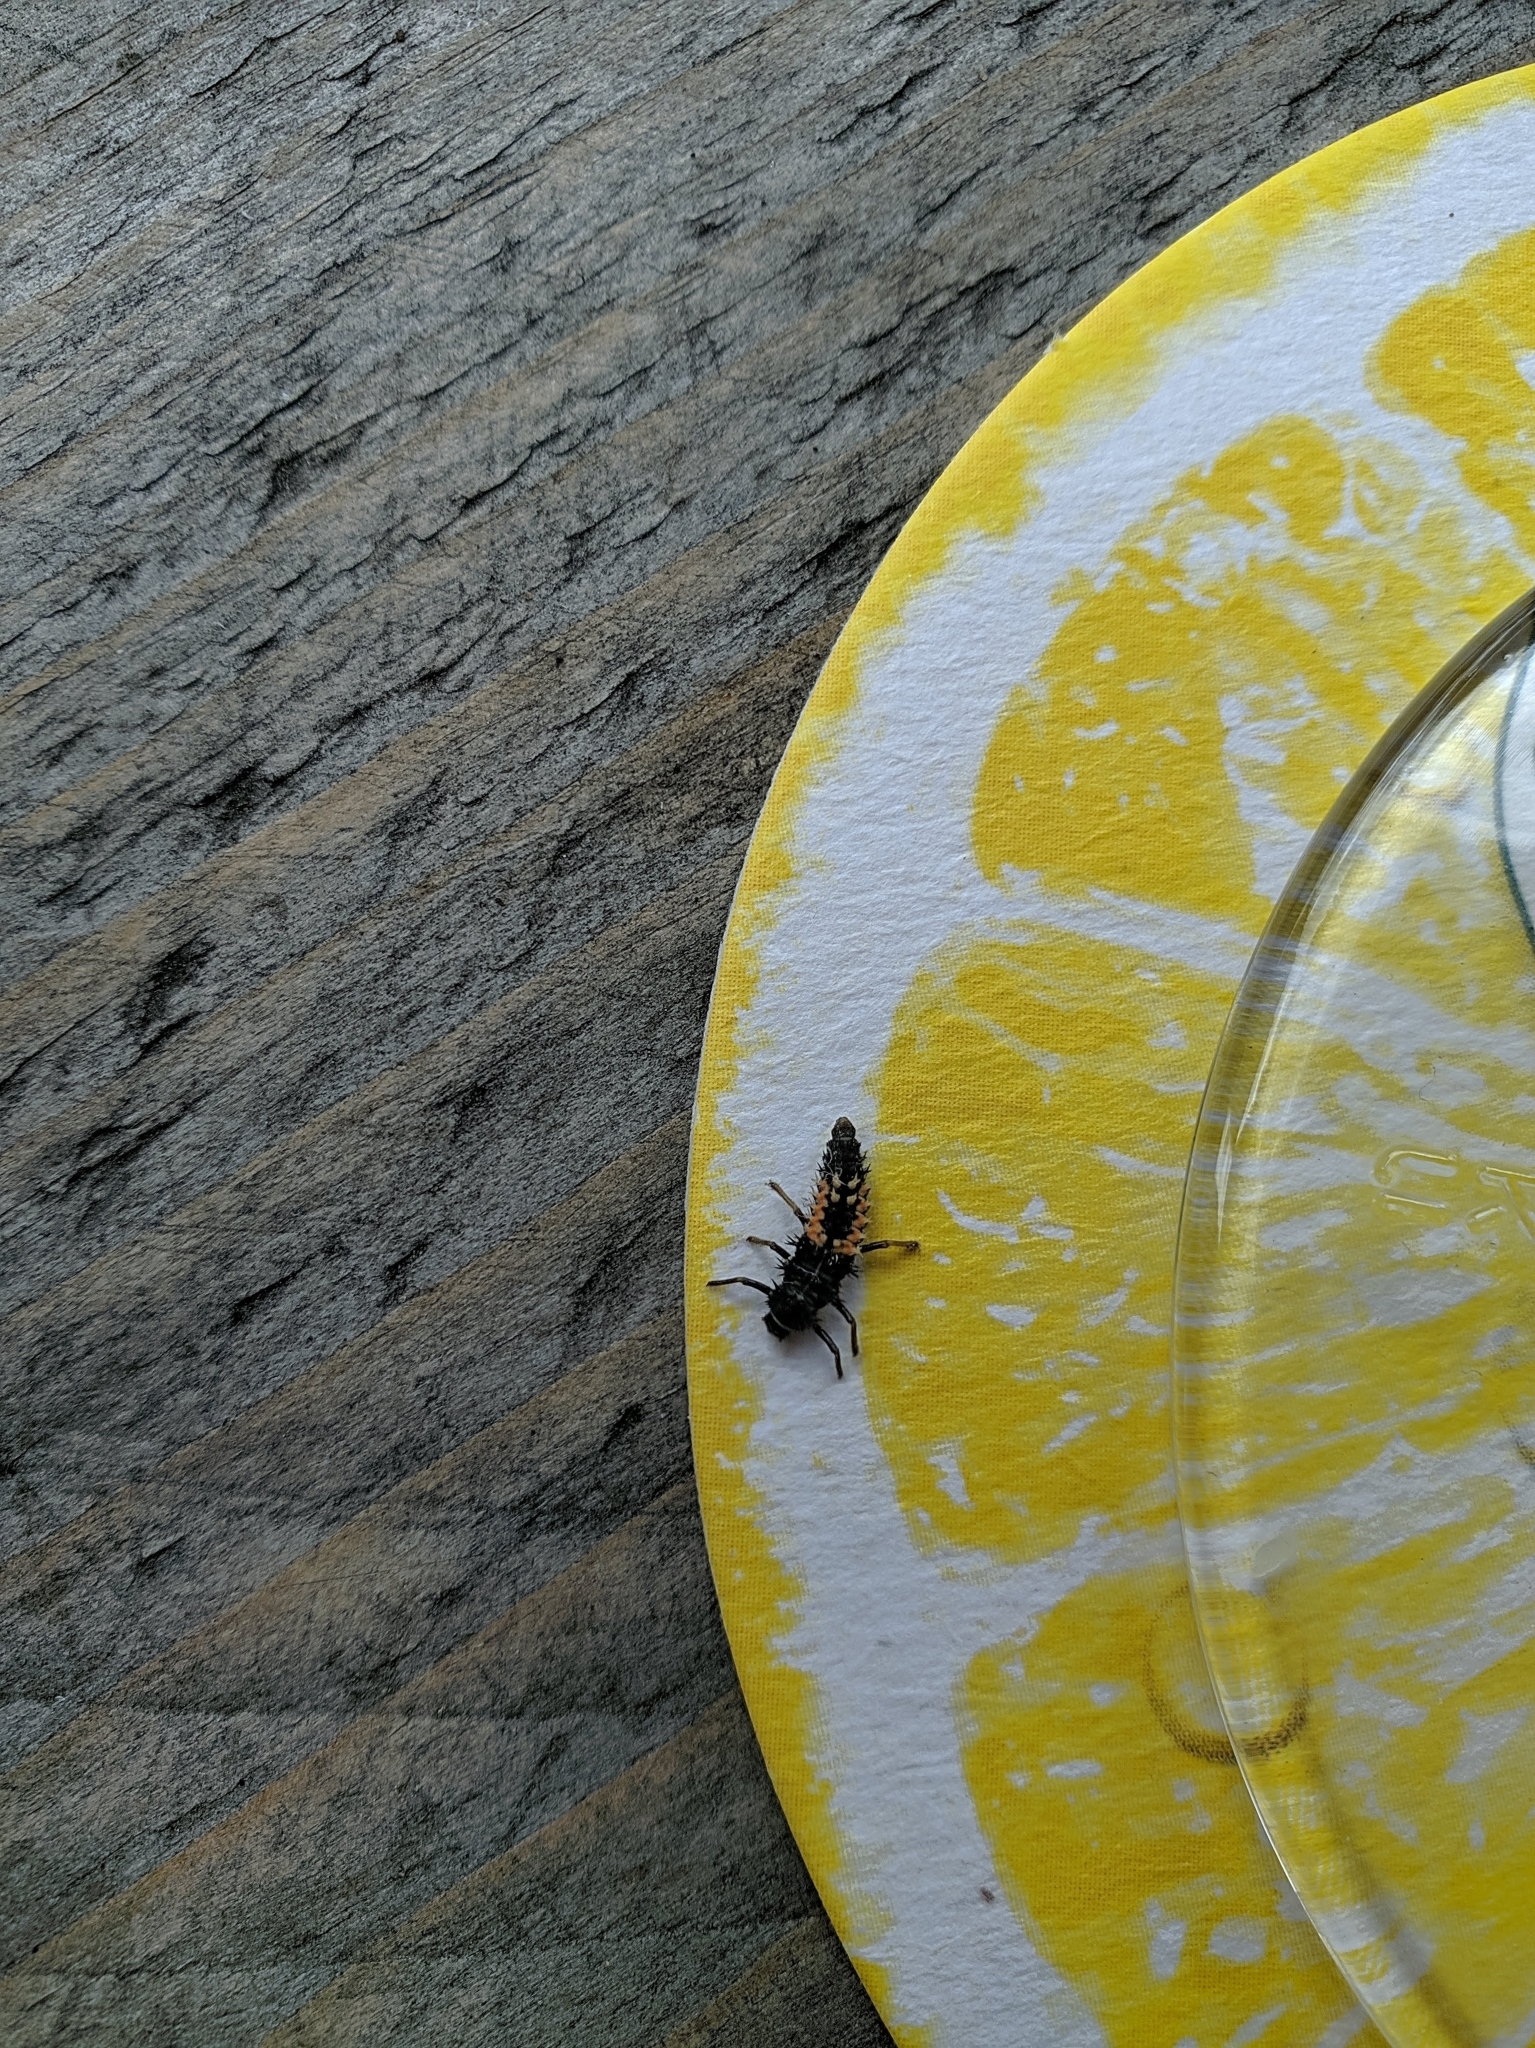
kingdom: Animalia
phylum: Arthropoda
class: Insecta
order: Coleoptera
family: Coccinellidae
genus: Harmonia
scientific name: Harmonia axyridis
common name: Harlequin ladybird
